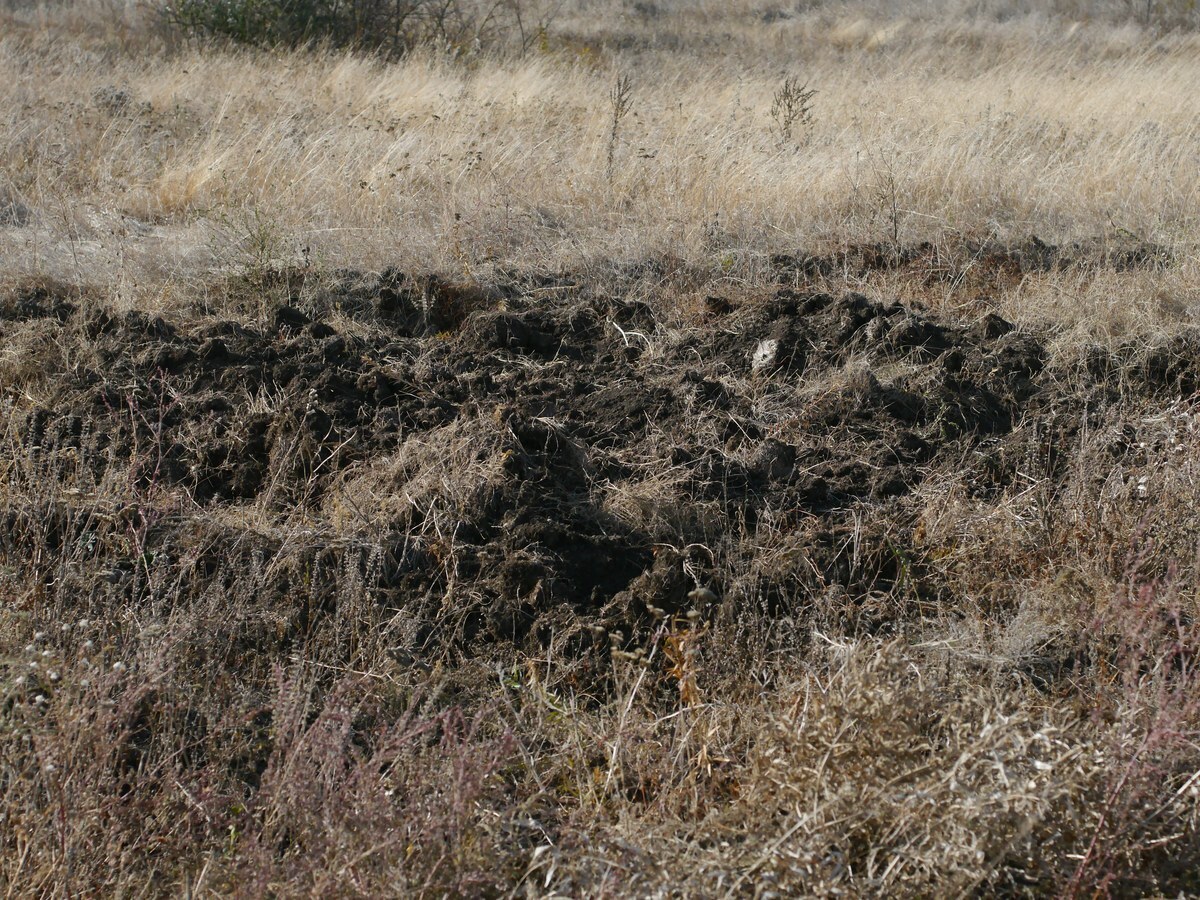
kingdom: Animalia
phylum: Chordata
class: Mammalia
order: Artiodactyla
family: Suidae
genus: Sus
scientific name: Sus scrofa
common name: Wild boar
